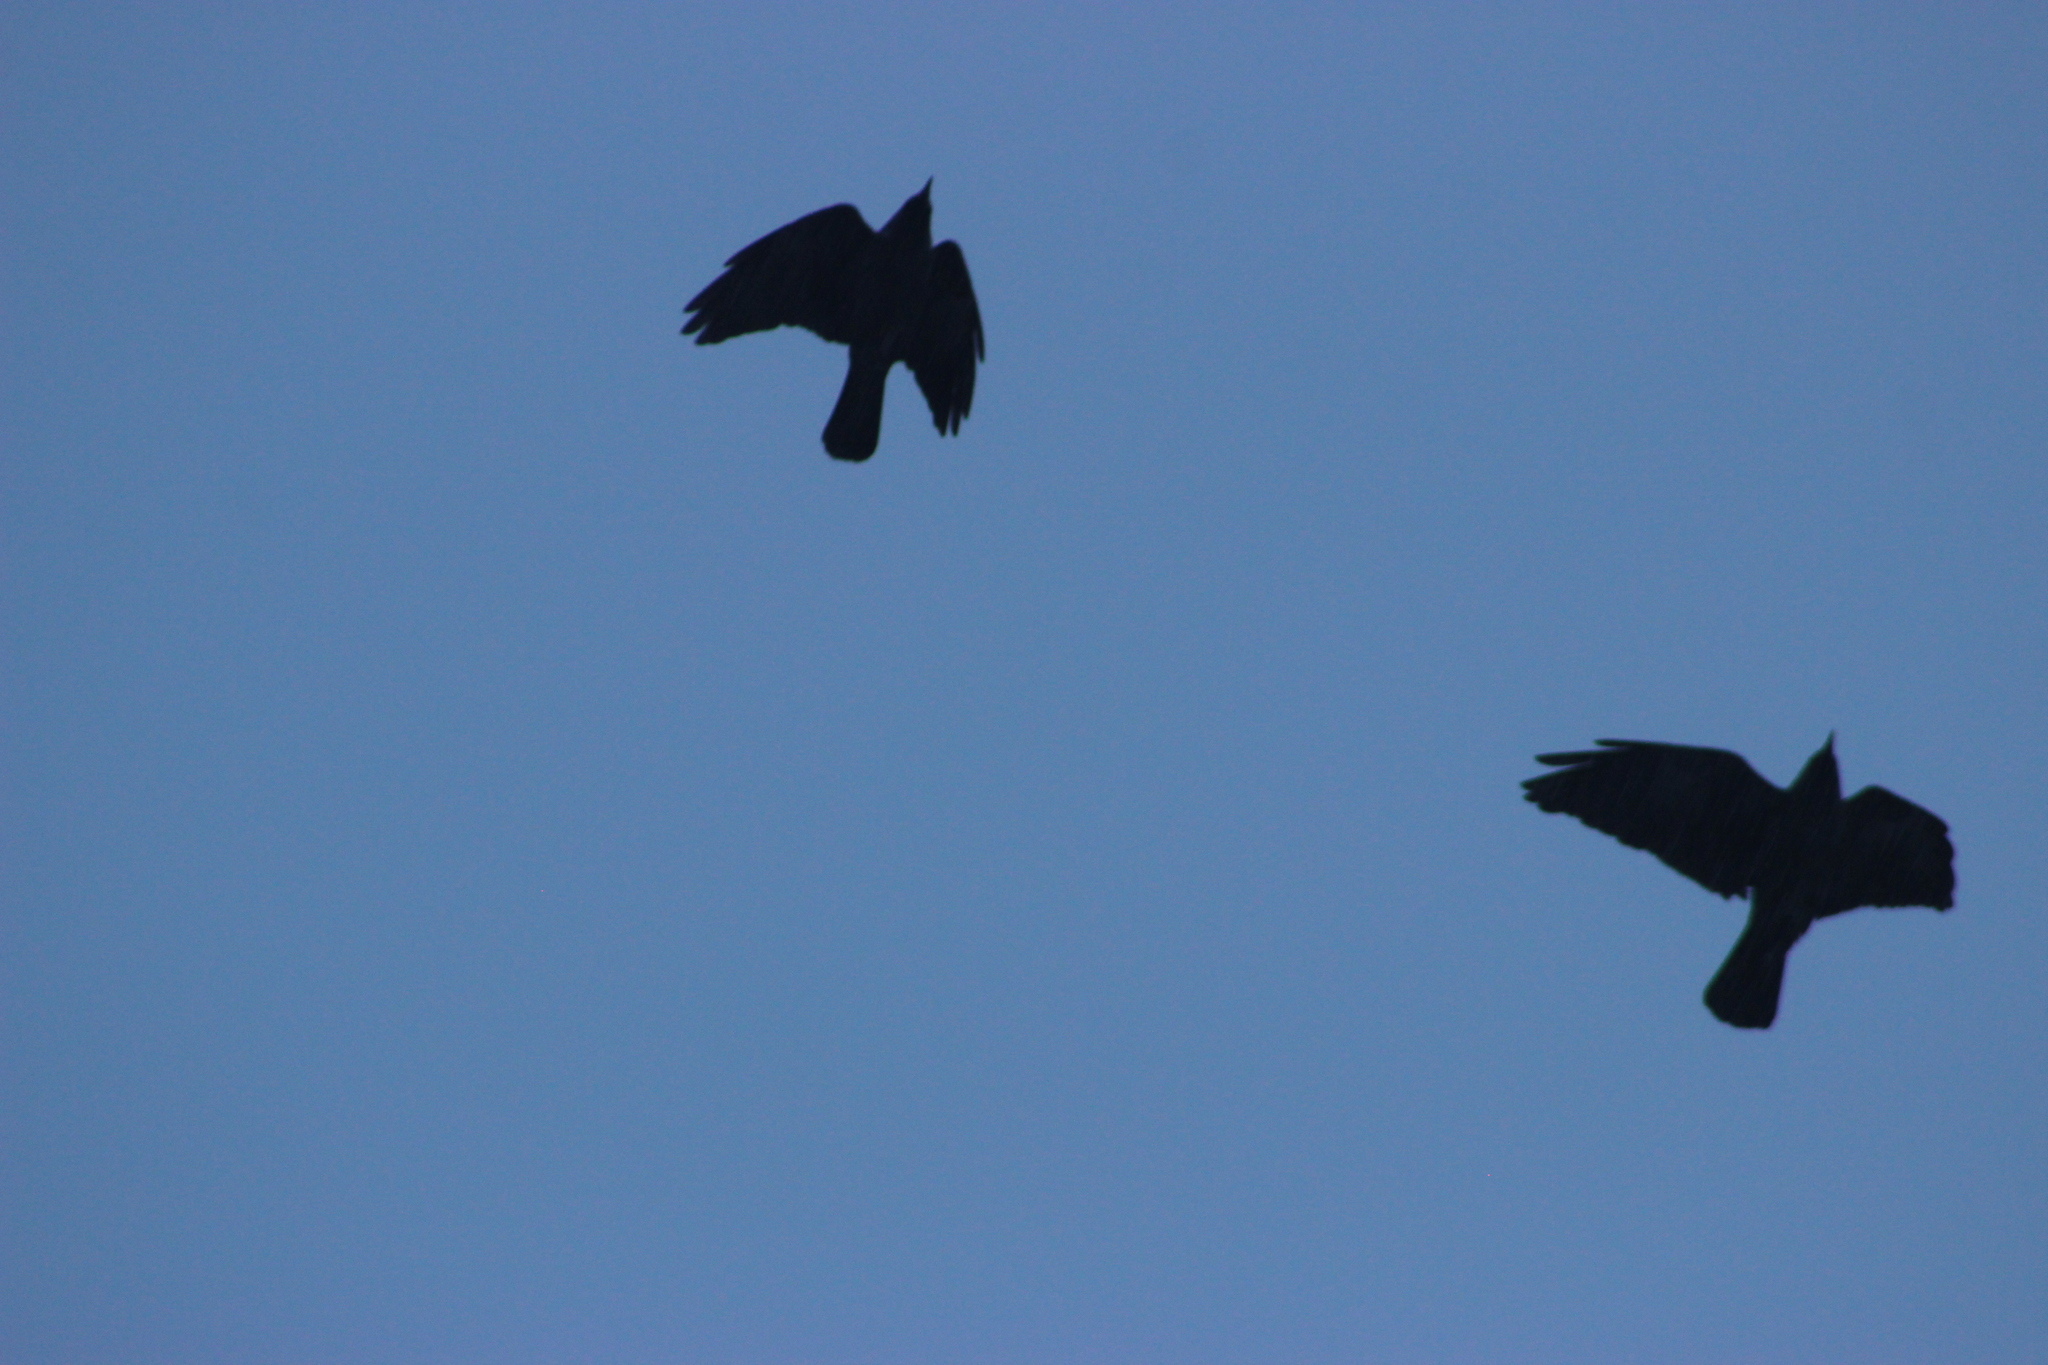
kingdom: Animalia
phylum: Chordata
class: Aves
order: Passeriformes
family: Corvidae
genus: Coloeus
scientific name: Coloeus monedula
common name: Western jackdaw
